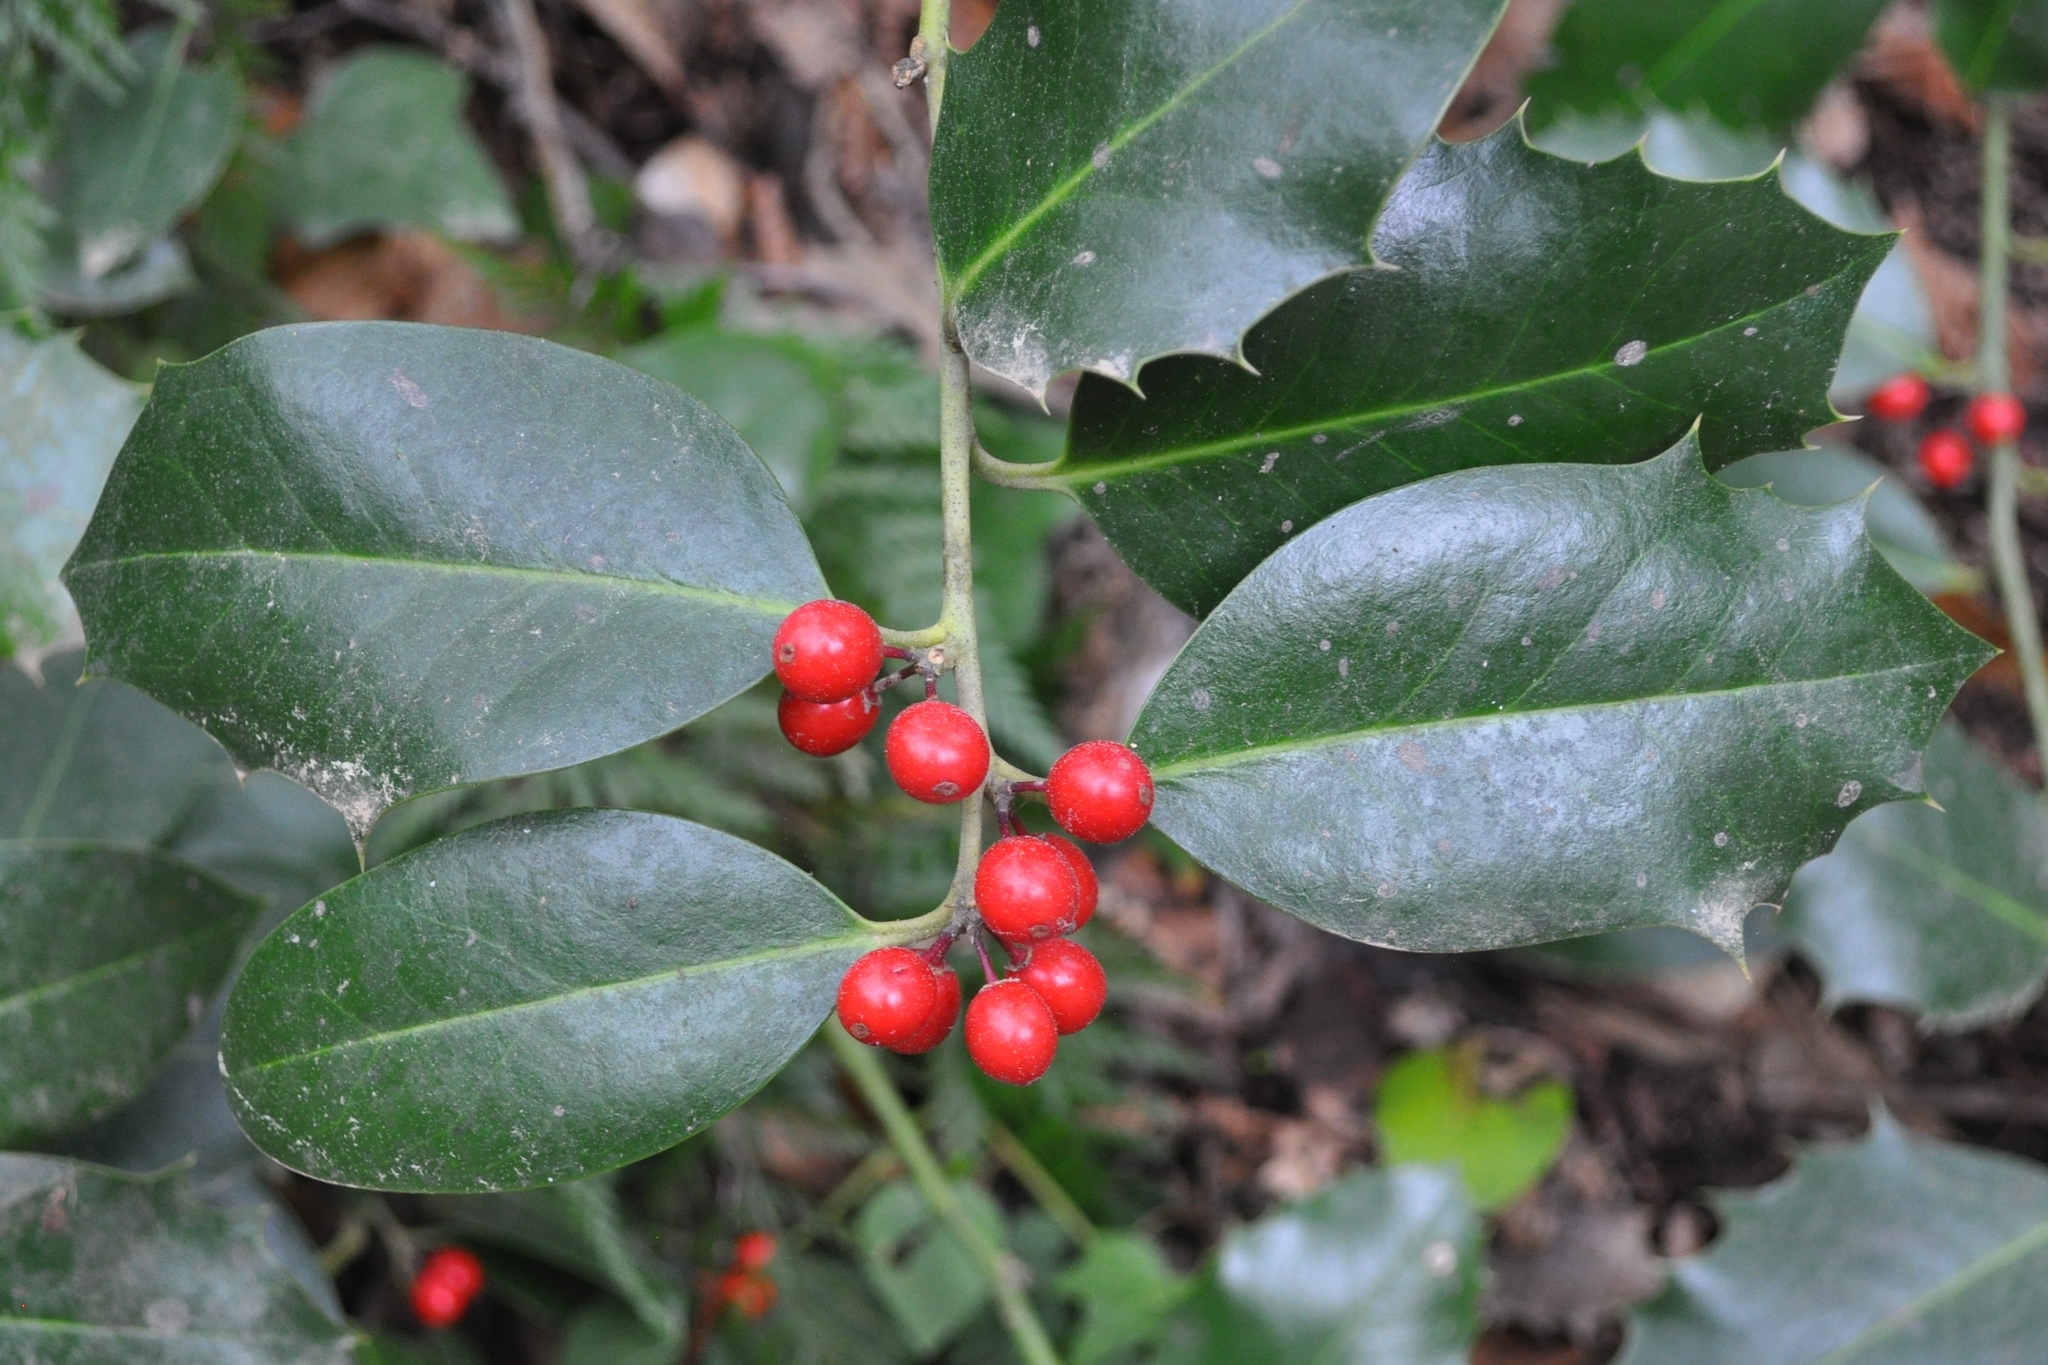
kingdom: Plantae
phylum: Tracheophyta
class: Magnoliopsida
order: Aquifoliales
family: Aquifoliaceae
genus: Ilex
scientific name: Ilex aquifolium
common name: English holly
